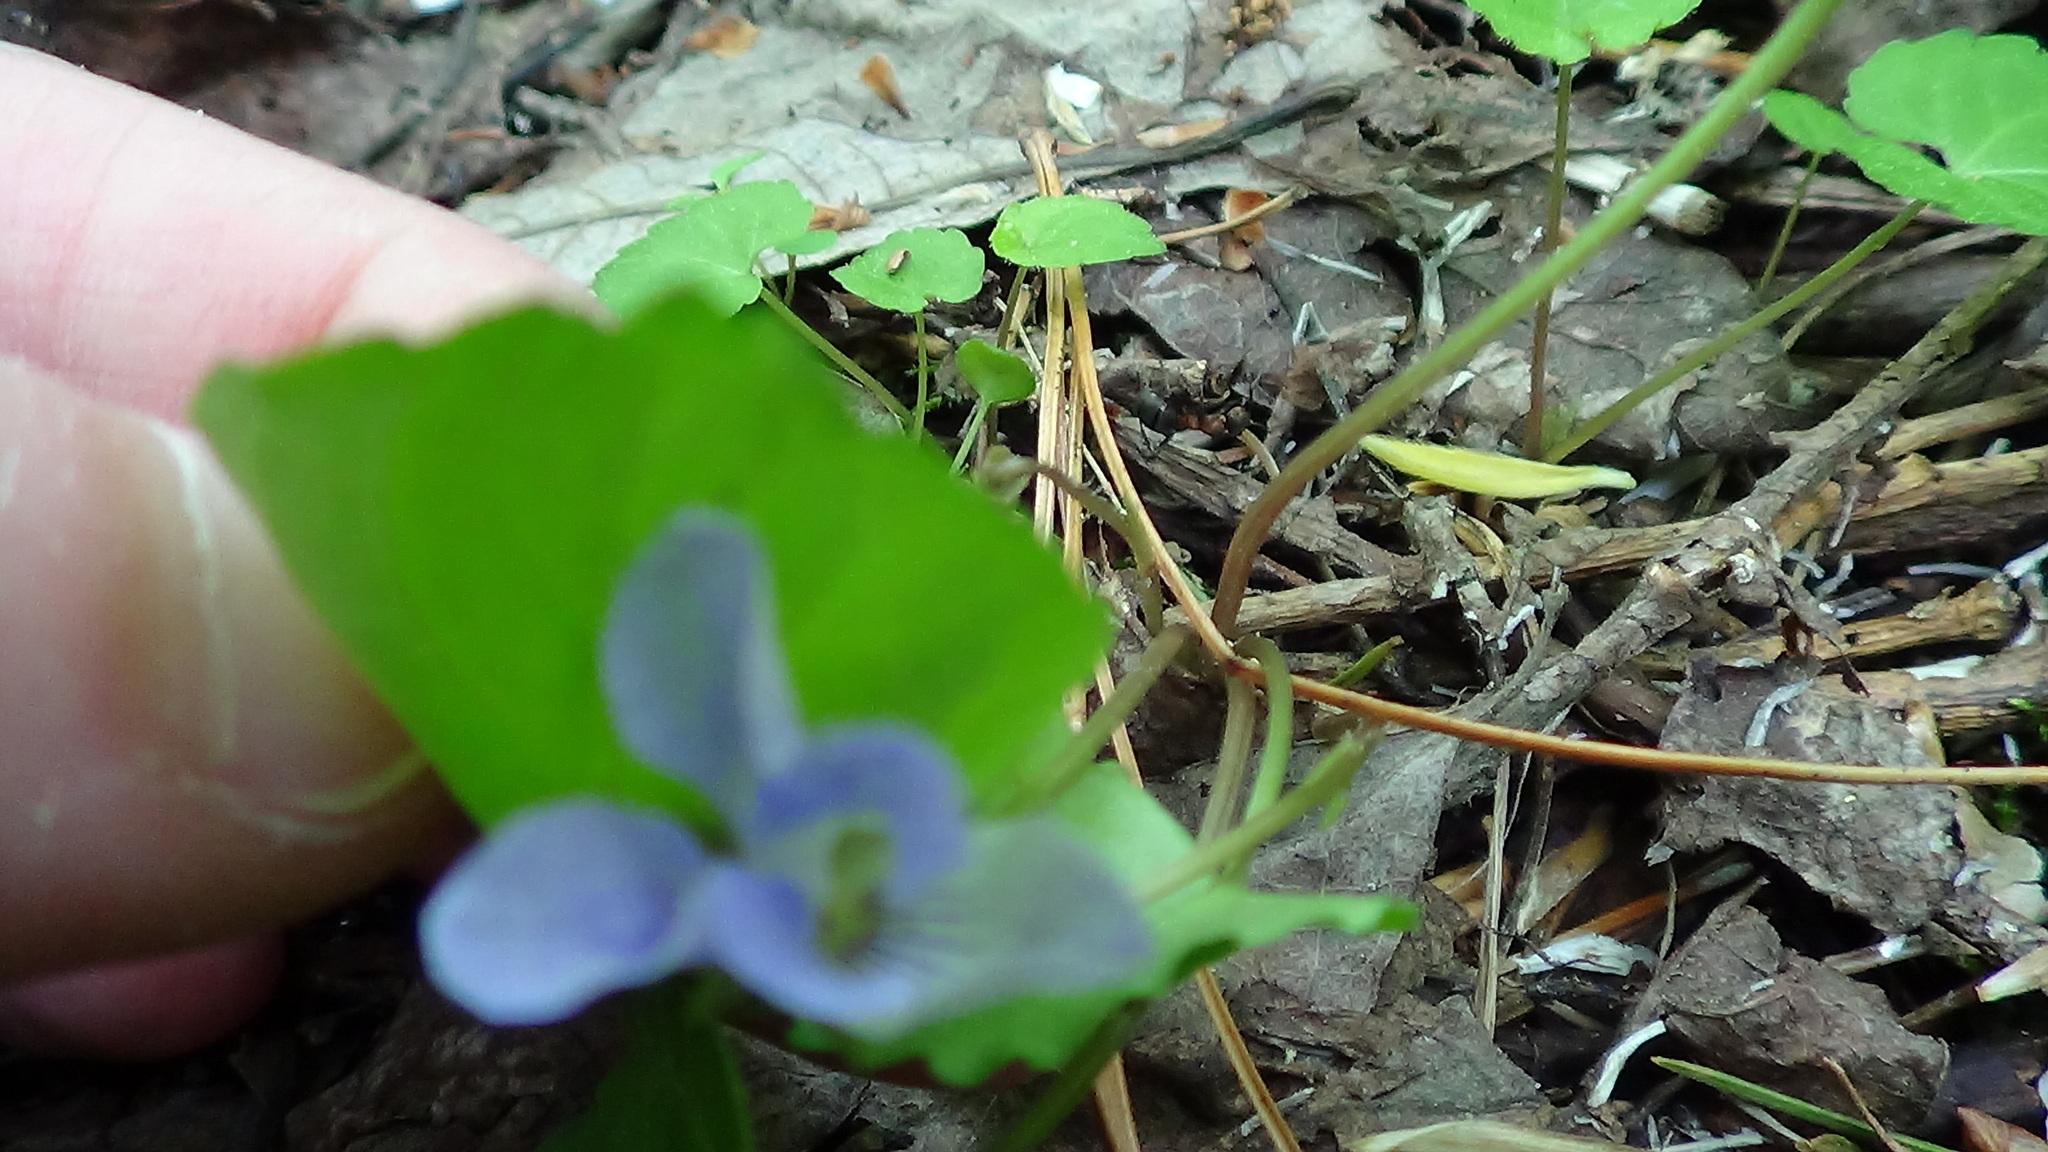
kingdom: Plantae
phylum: Tracheophyta
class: Magnoliopsida
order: Malpighiales
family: Violaceae
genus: Viola
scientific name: Viola selkirkii
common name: Selkirk's violet
